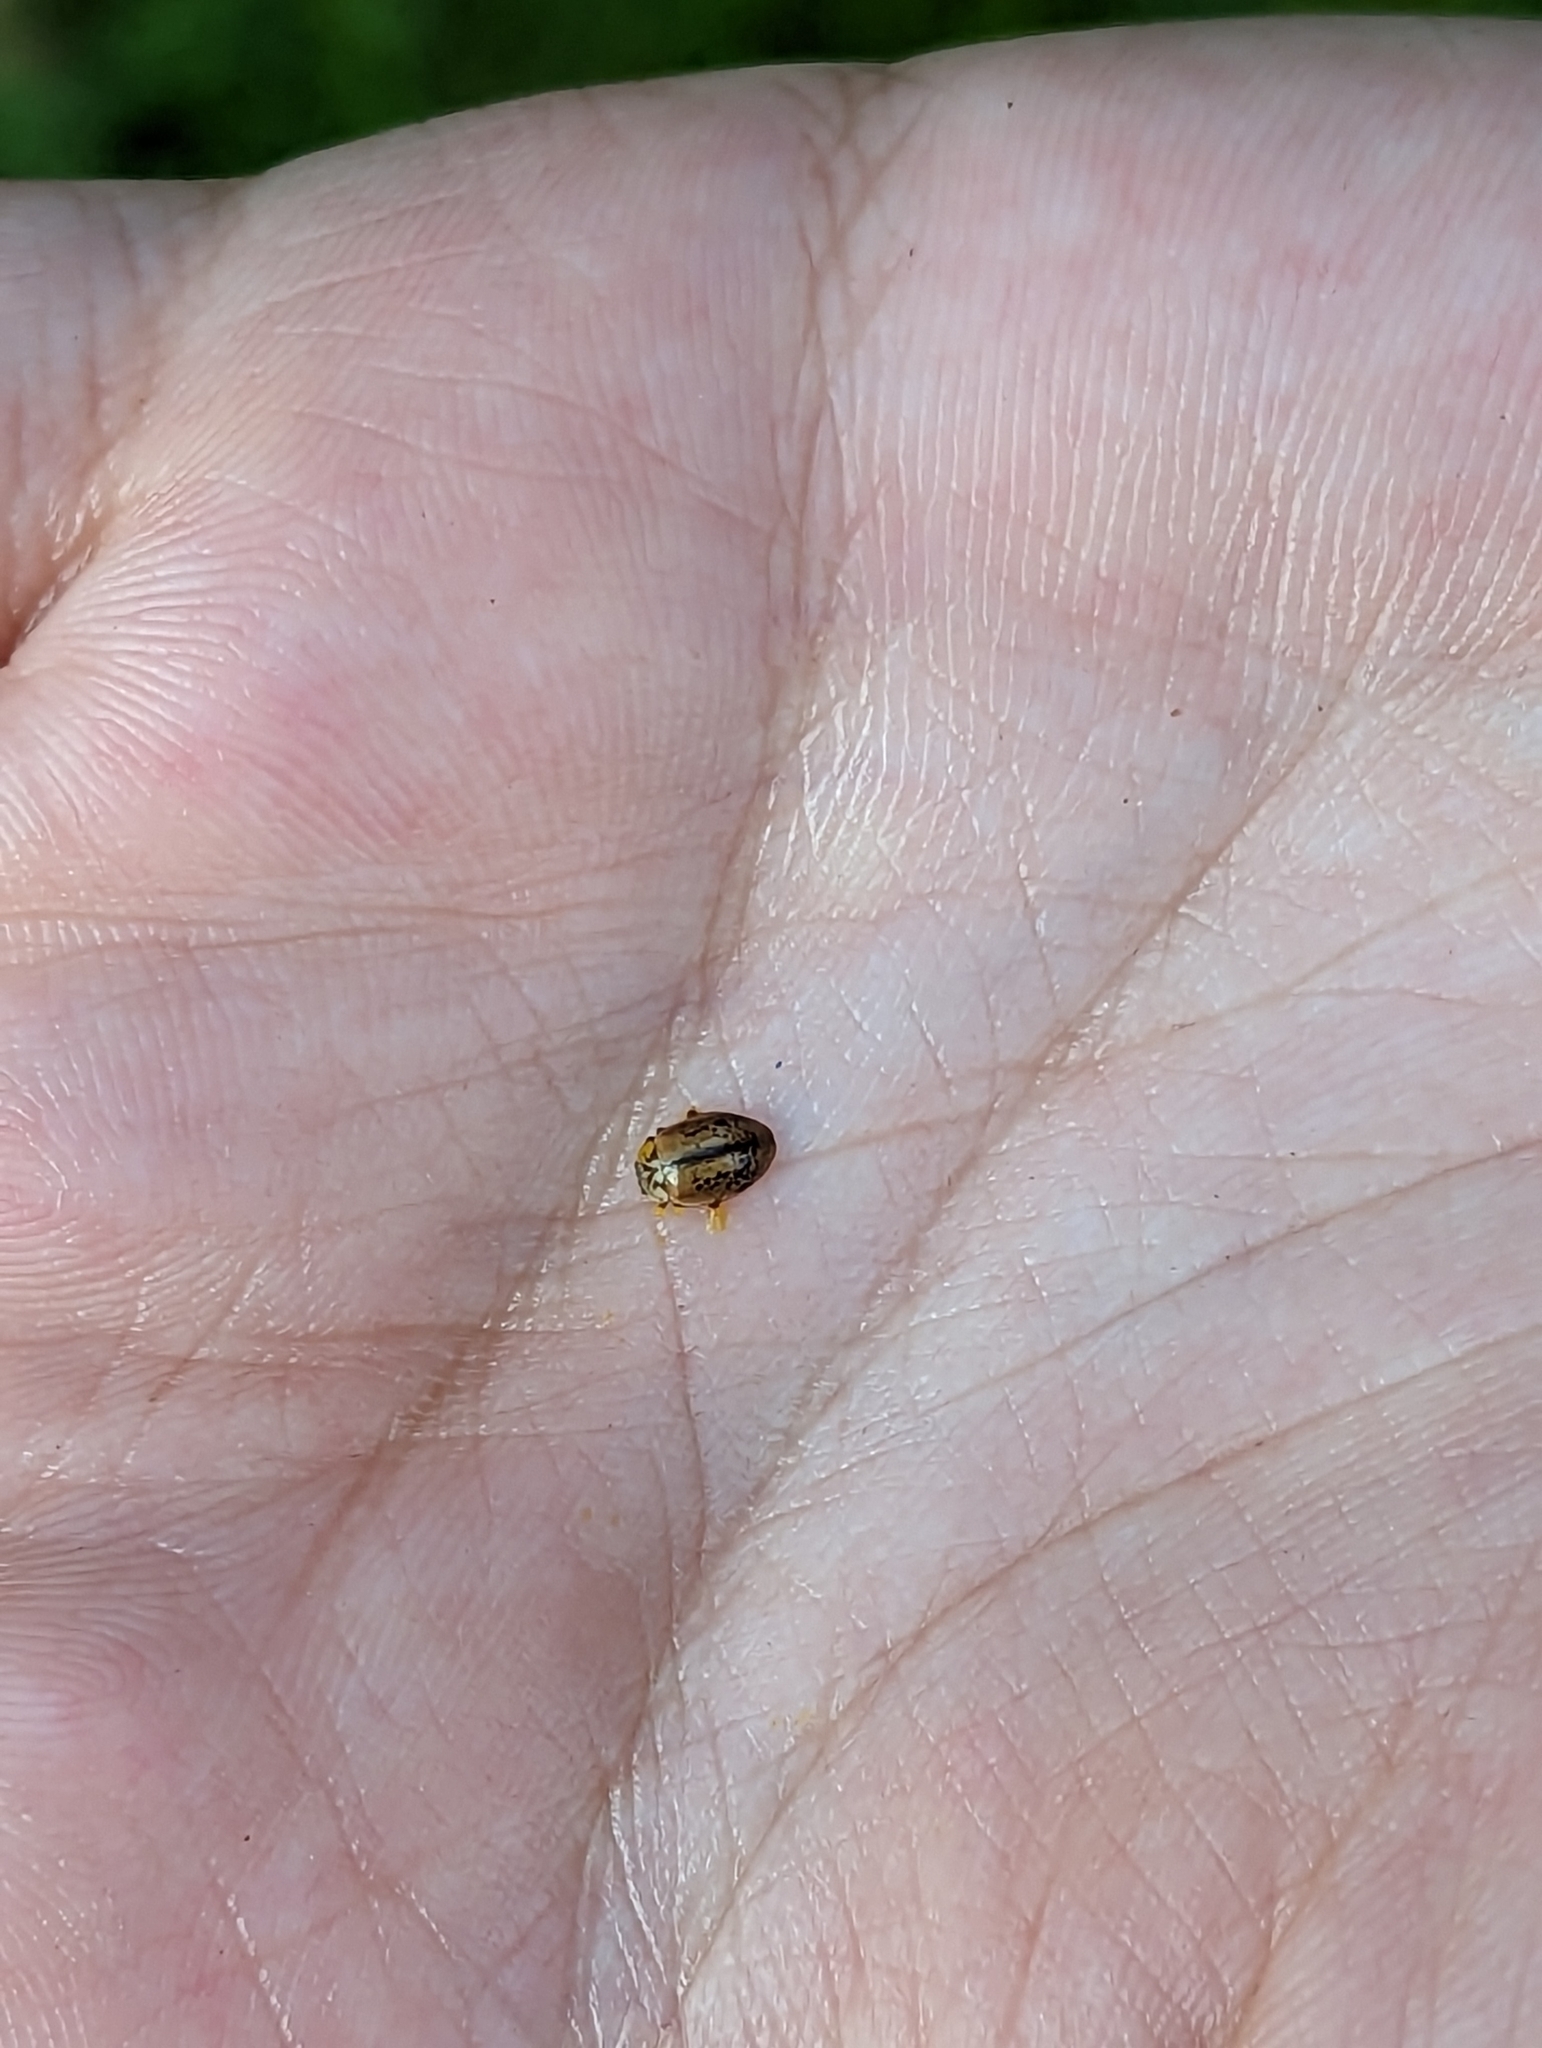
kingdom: Animalia
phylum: Arthropoda
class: Insecta
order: Coleoptera
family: Coccinellidae
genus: Aphidecta
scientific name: Aphidecta obliterata
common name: Larch ladybird
